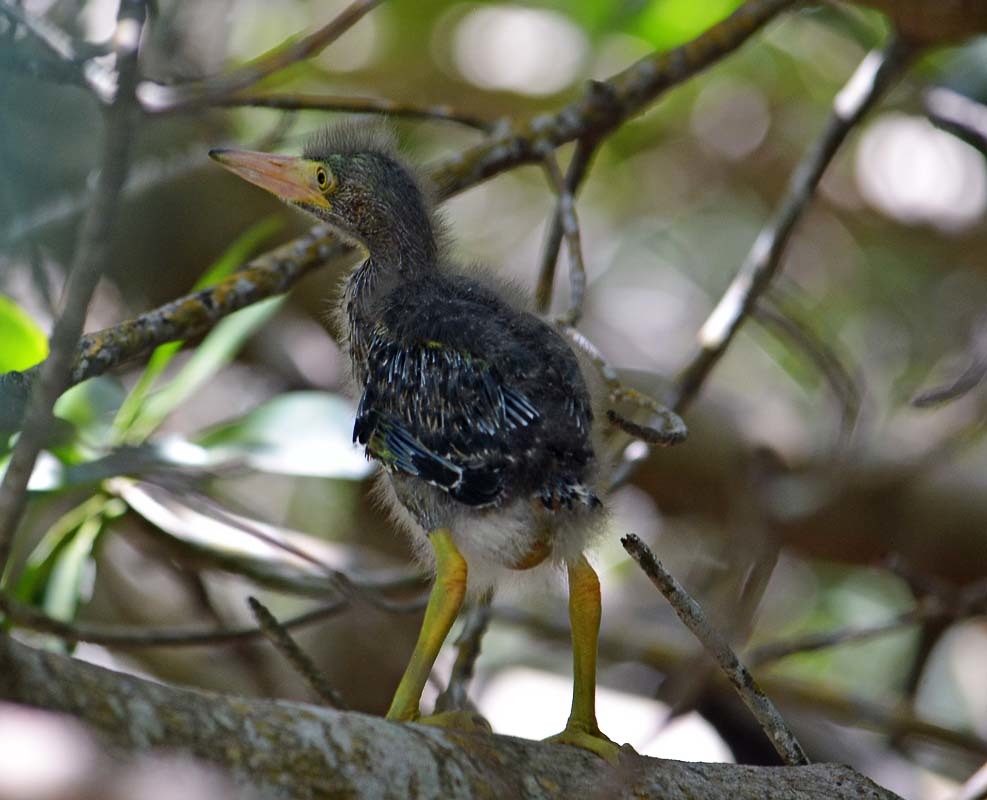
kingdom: Animalia
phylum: Chordata
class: Aves
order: Pelecaniformes
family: Ardeidae
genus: Butorides
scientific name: Butorides virescens
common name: Green heron
